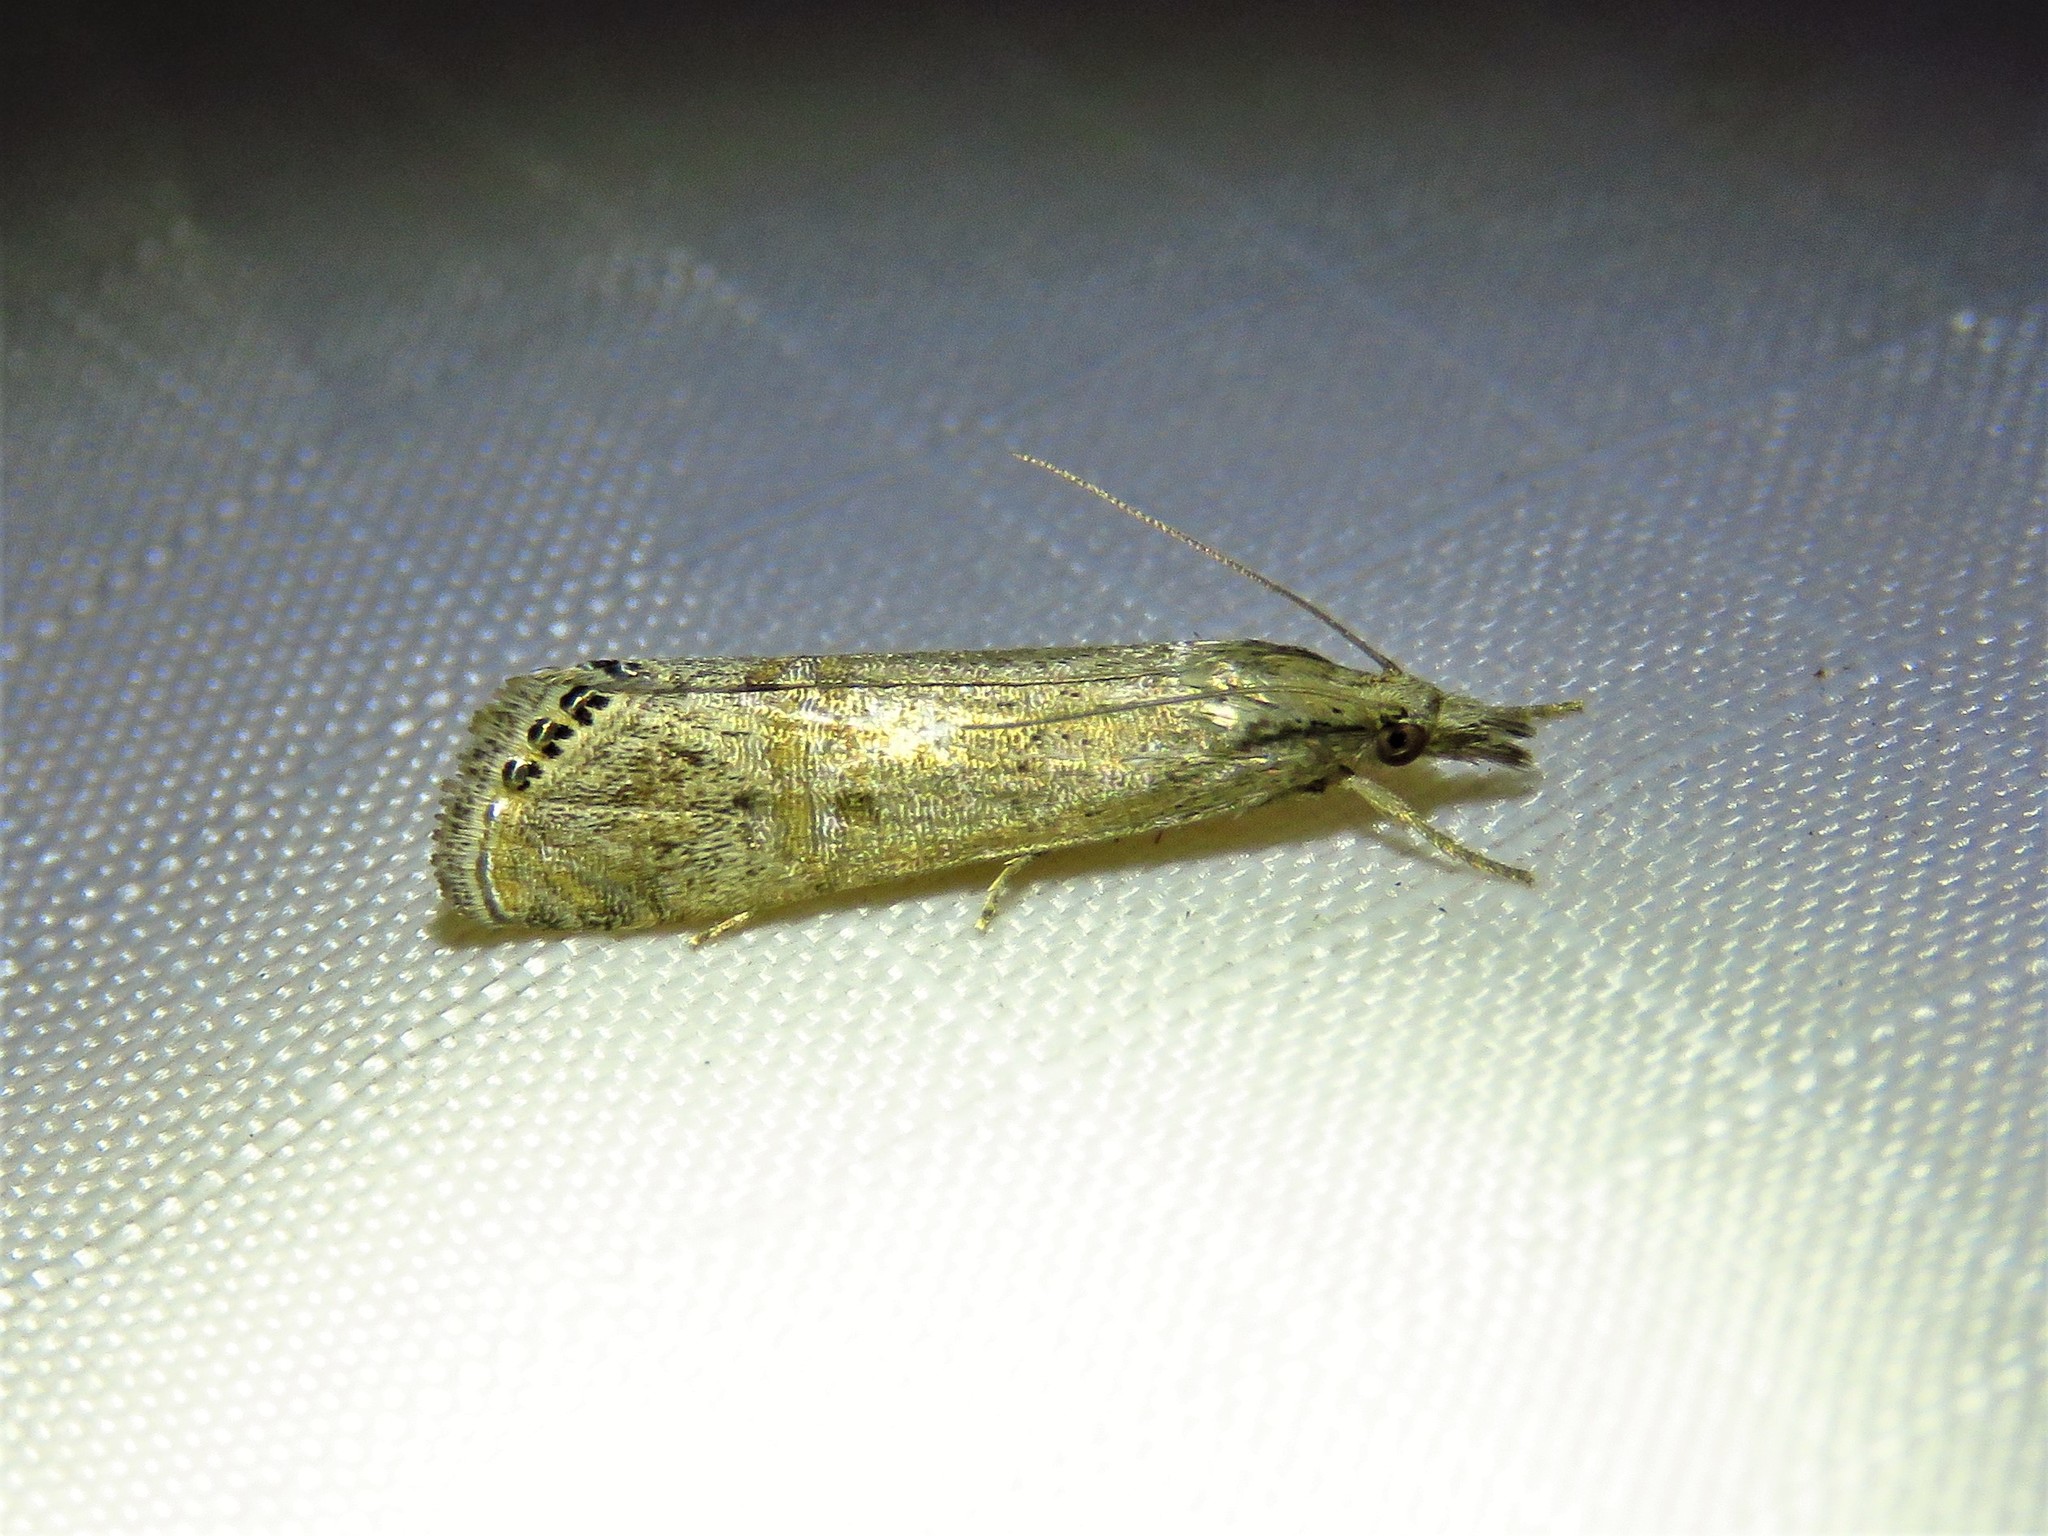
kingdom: Animalia
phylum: Arthropoda
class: Insecta
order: Lepidoptera
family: Crambidae
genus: Euchromius
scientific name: Euchromius ocellea
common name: Necklace veneer moth
